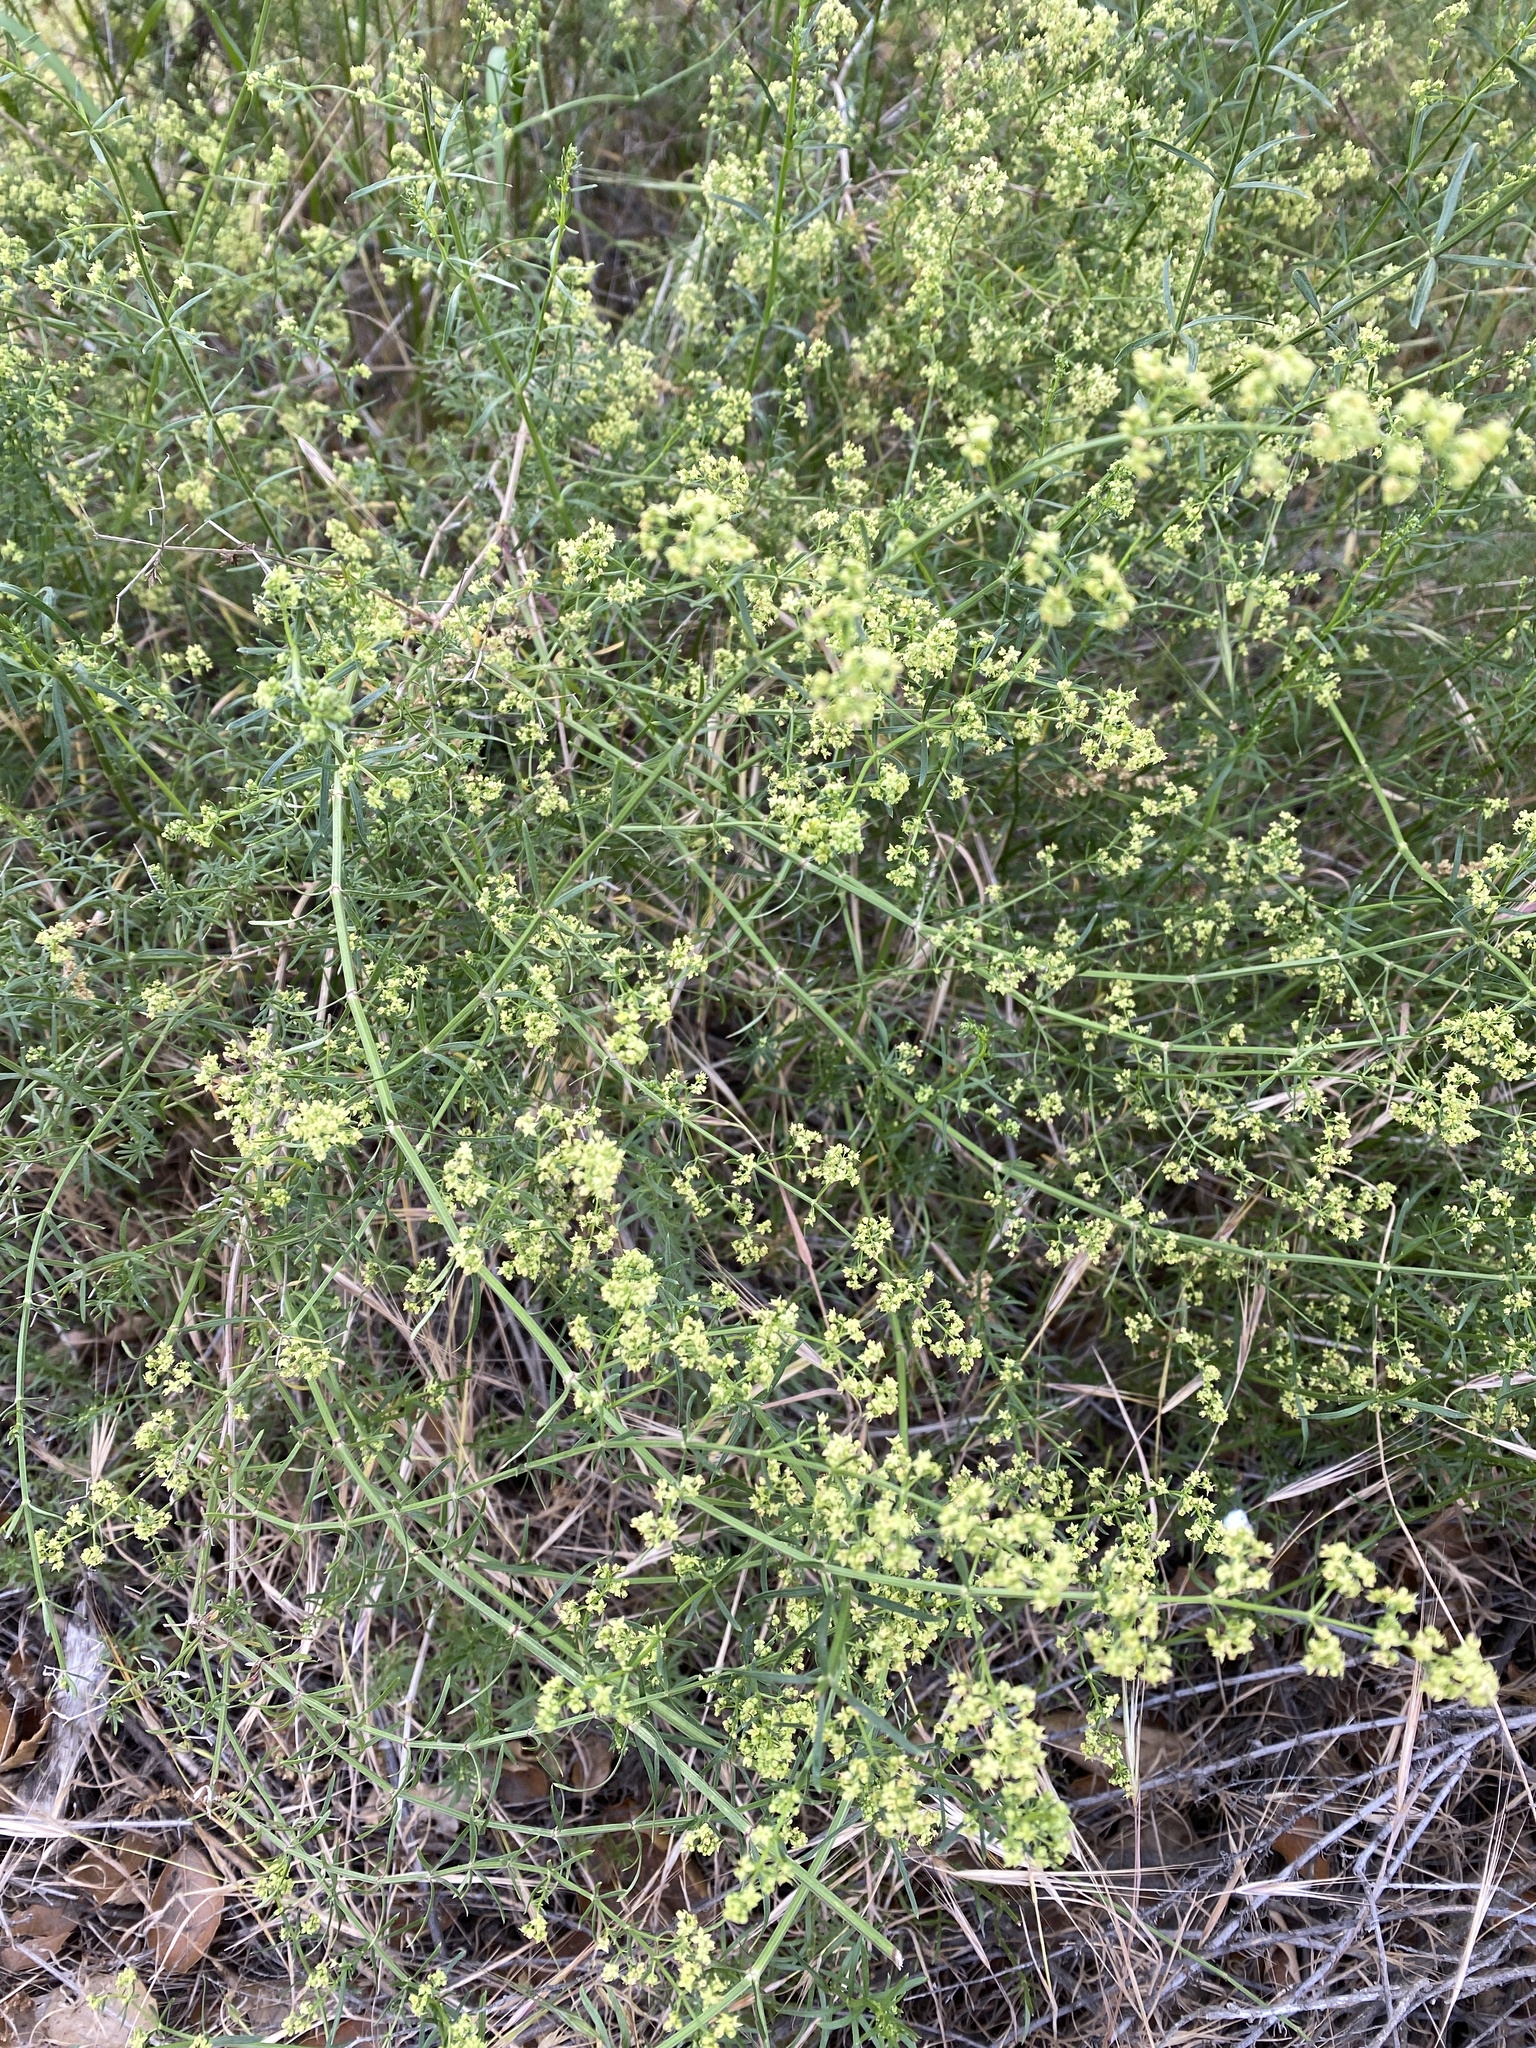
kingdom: Plantae
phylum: Tracheophyta
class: Magnoliopsida
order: Gentianales
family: Rubiaceae
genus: Galium
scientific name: Galium angustifolium
